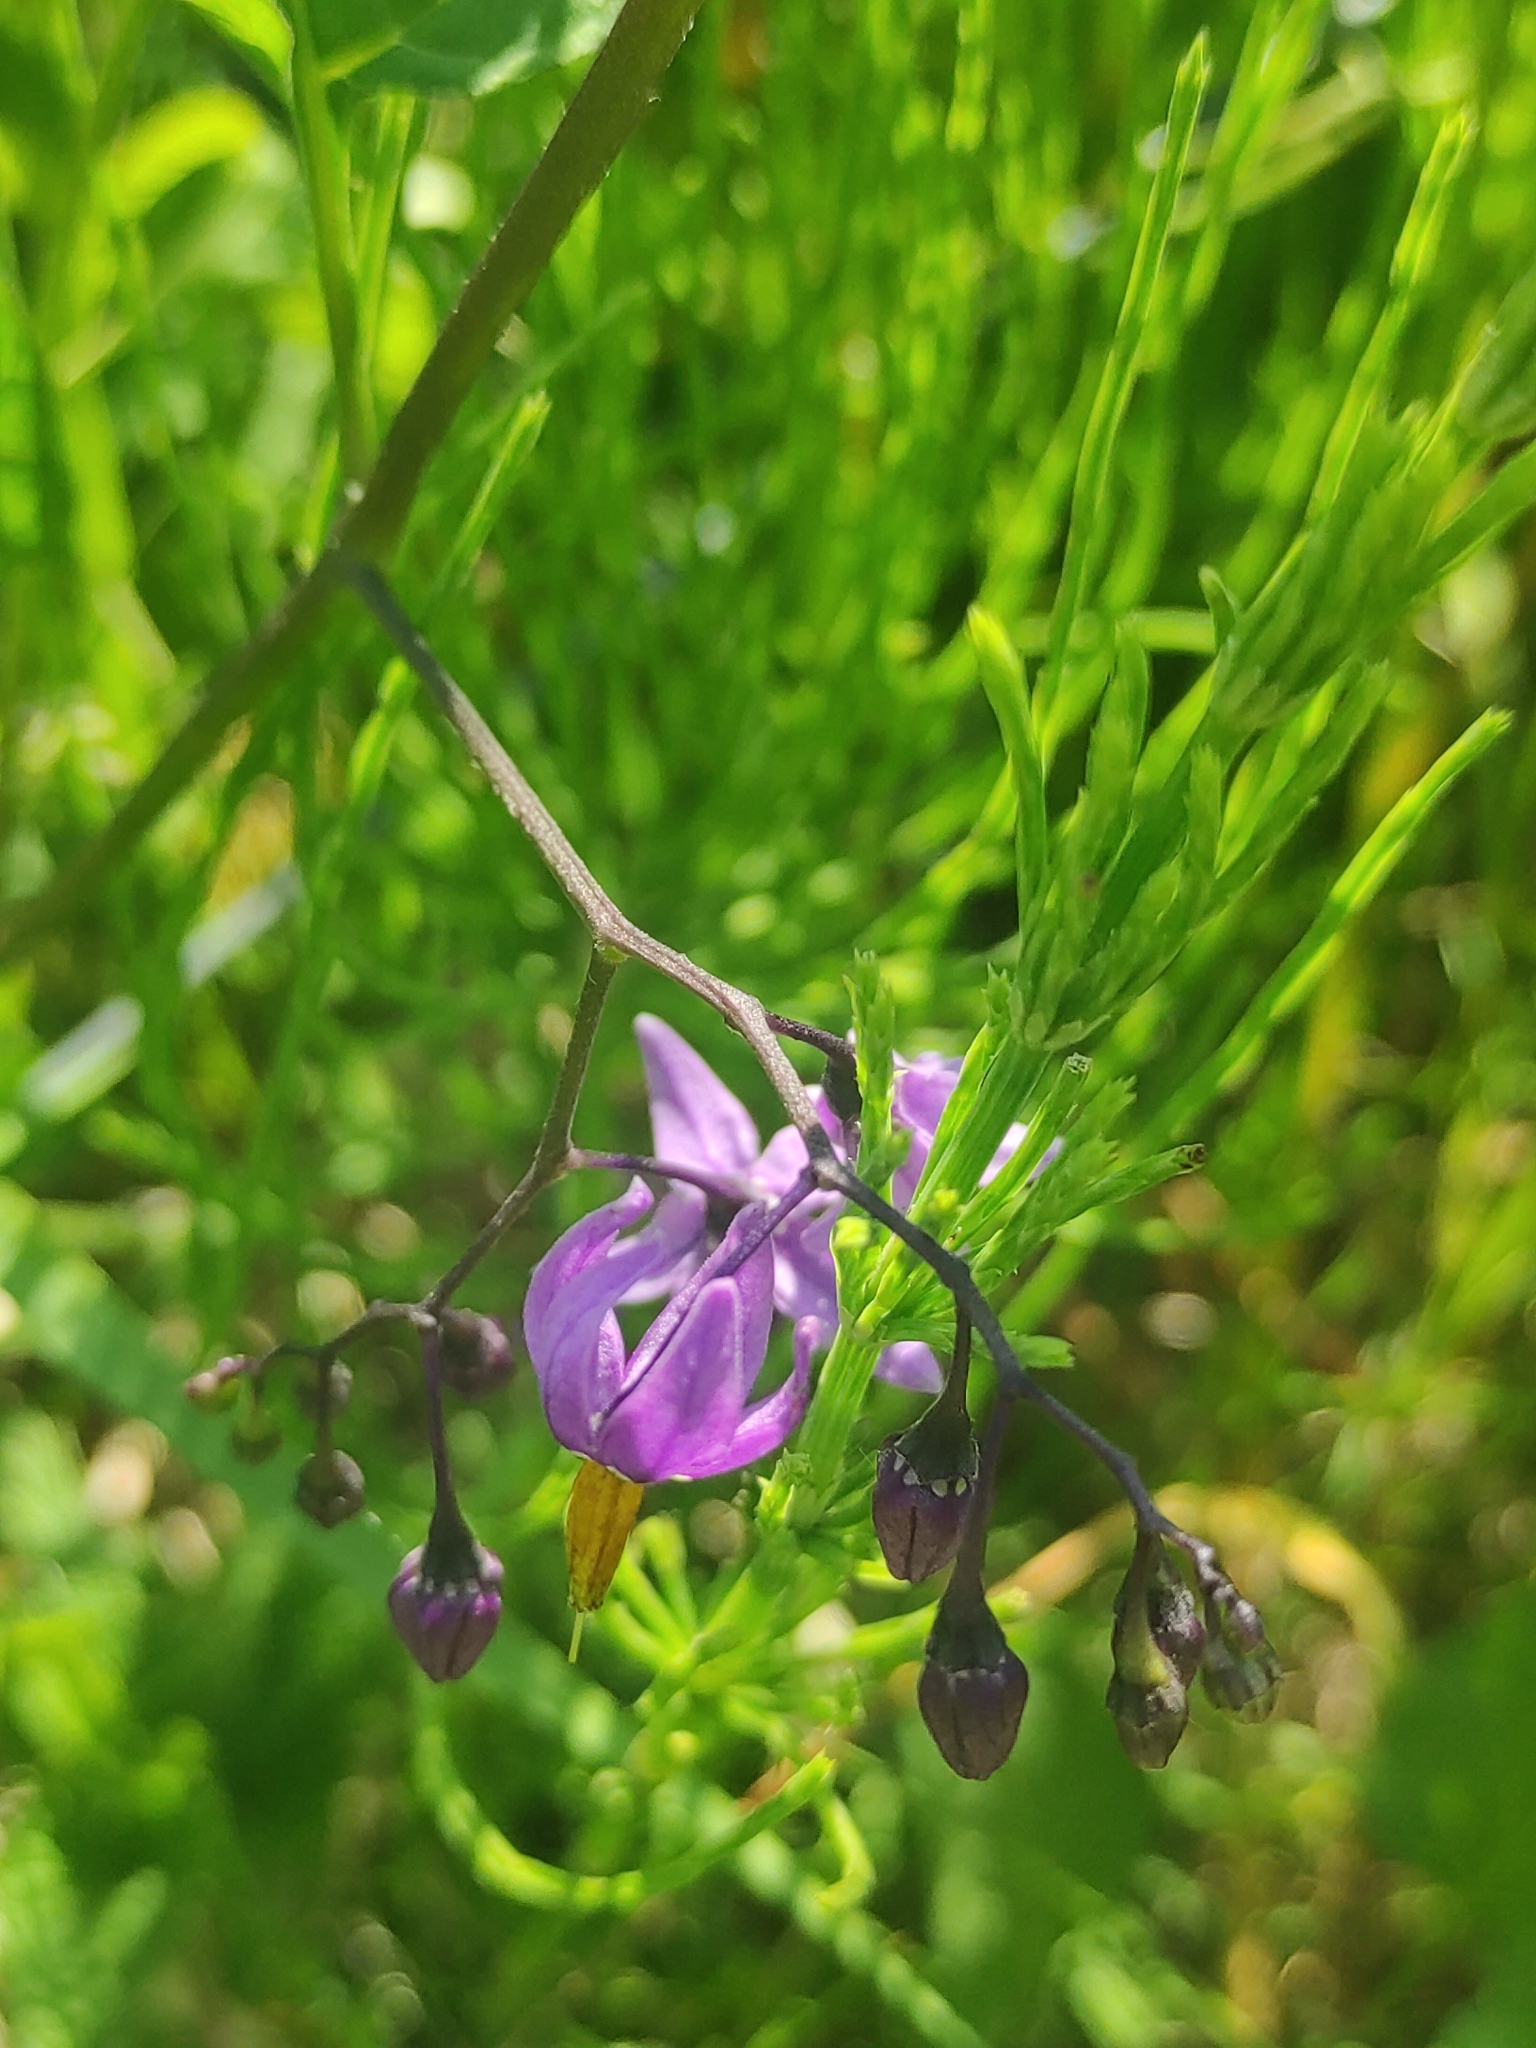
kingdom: Plantae
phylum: Tracheophyta
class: Magnoliopsida
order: Solanales
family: Solanaceae
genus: Solanum
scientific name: Solanum dulcamara
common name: Climbing nightshade
